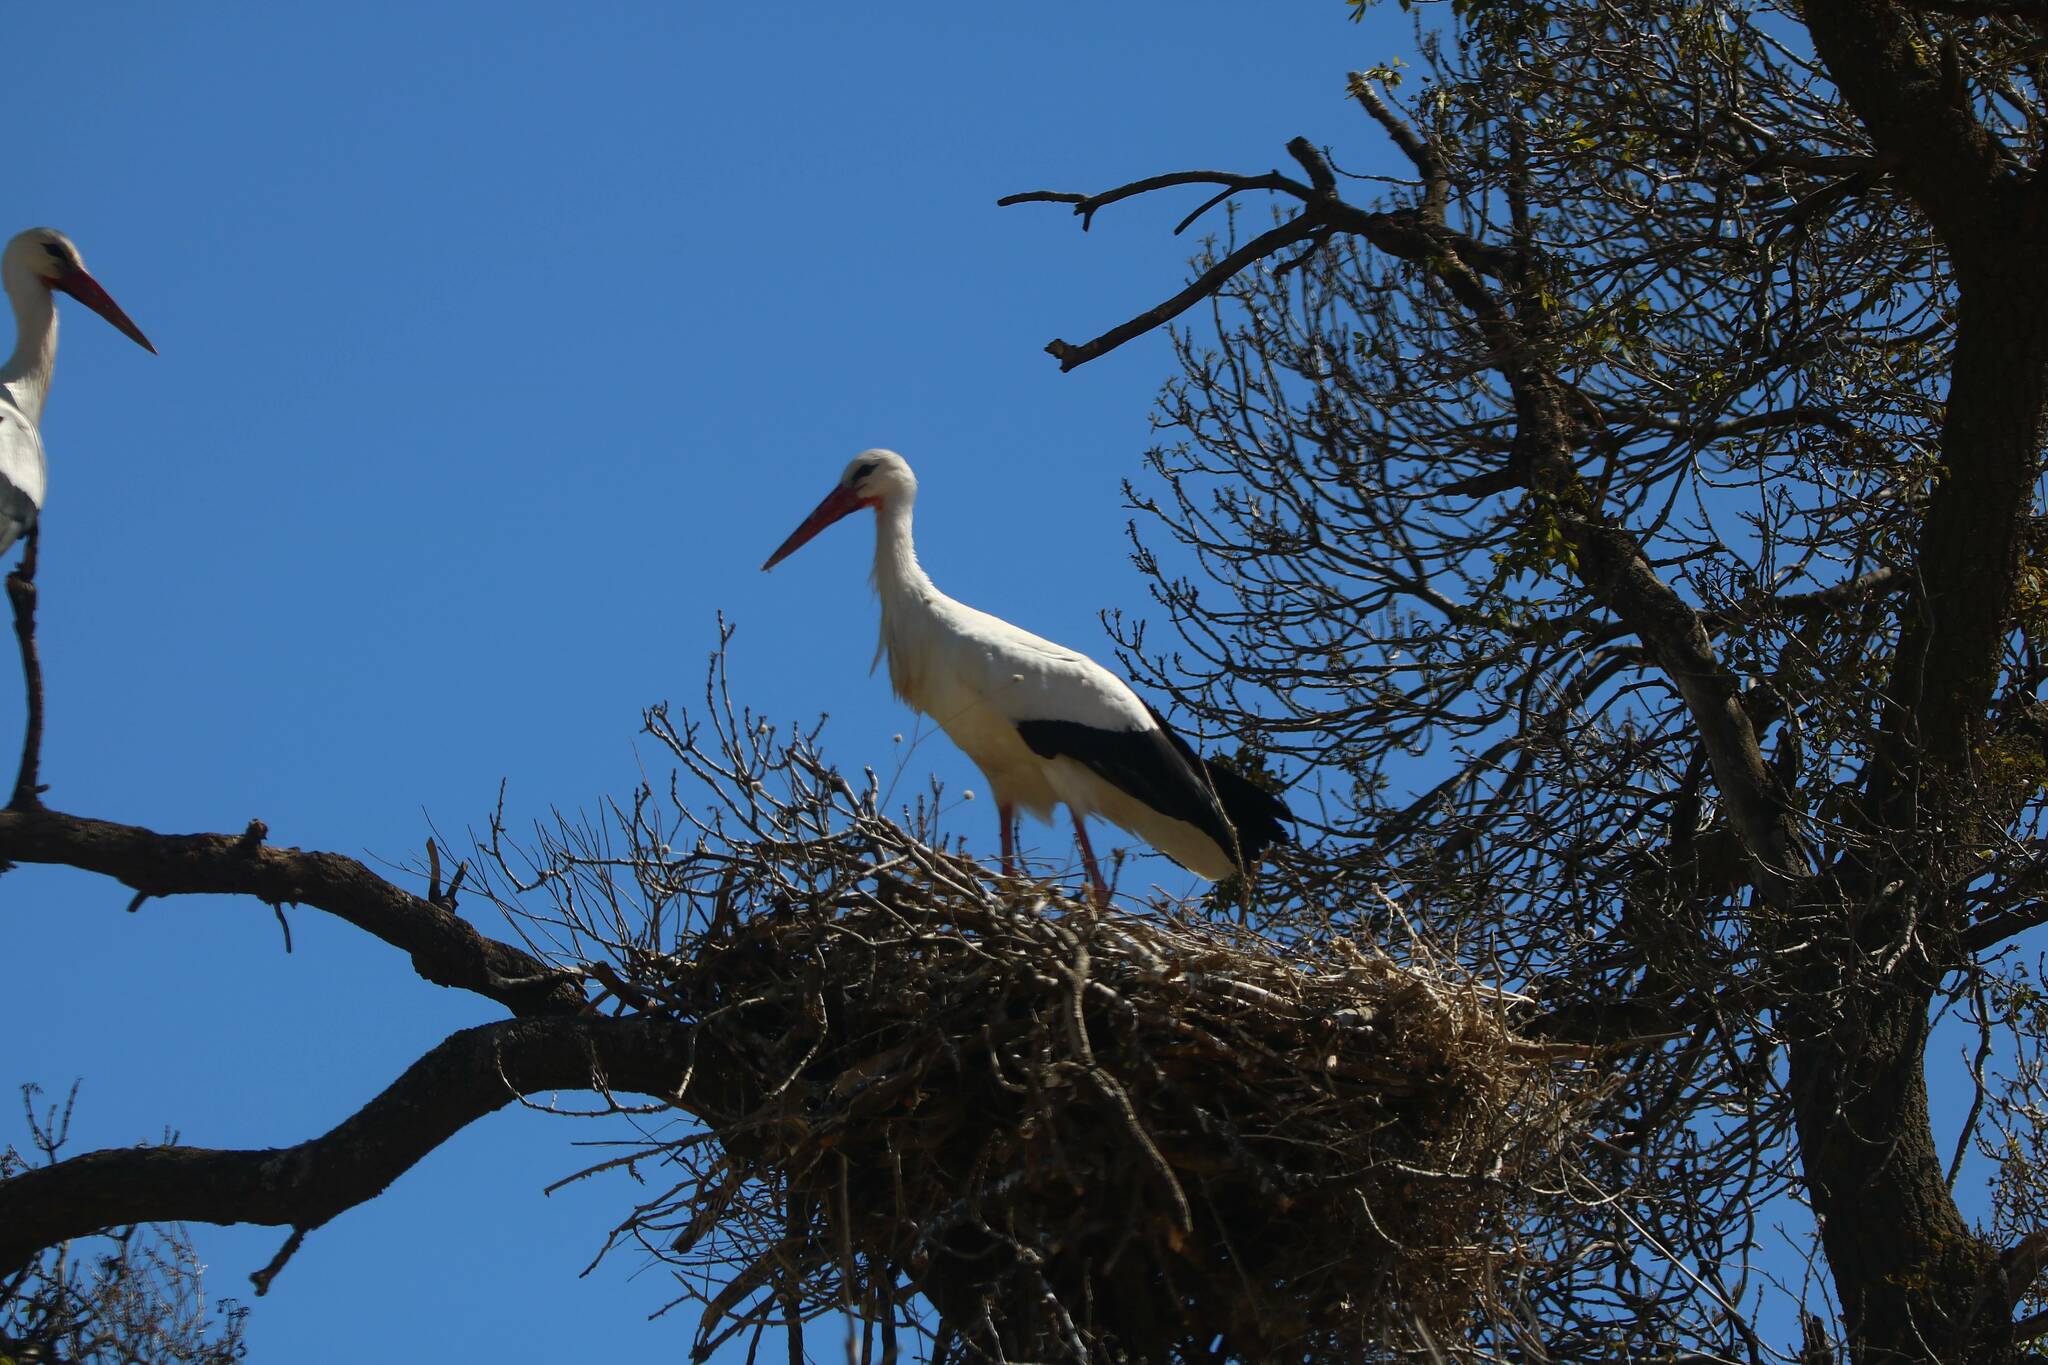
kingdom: Animalia
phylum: Chordata
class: Aves
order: Ciconiiformes
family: Ciconiidae
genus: Ciconia
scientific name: Ciconia ciconia
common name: White stork
